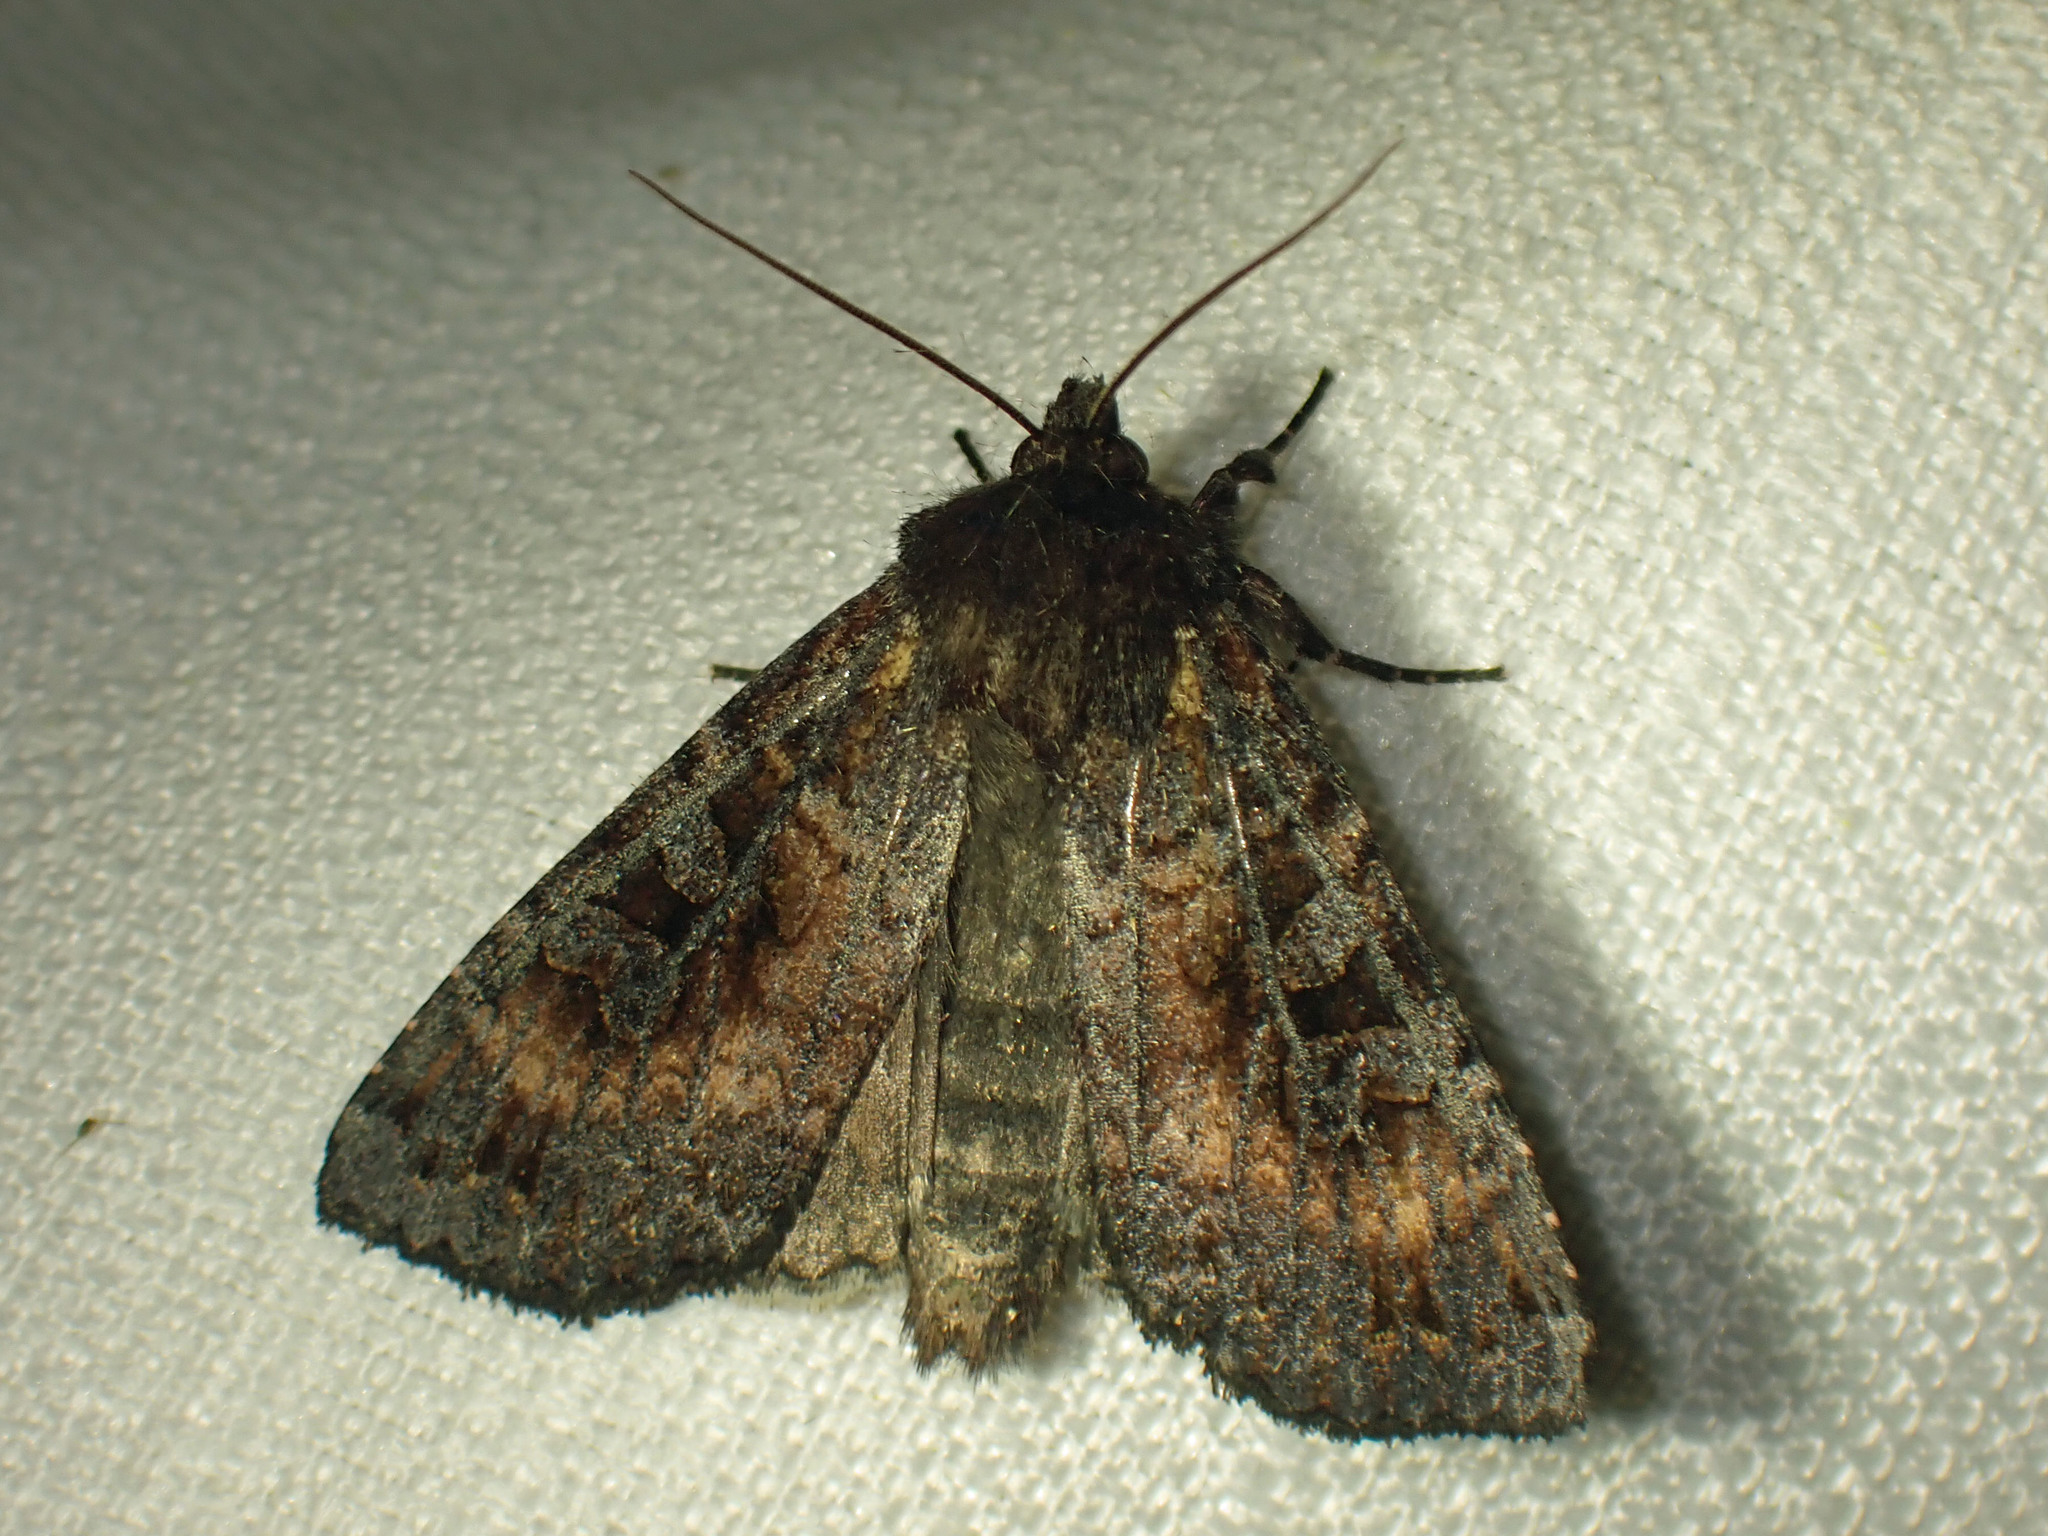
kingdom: Animalia
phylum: Arthropoda
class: Insecta
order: Lepidoptera
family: Noctuidae
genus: Eurois
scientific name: Eurois astricta
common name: Great brown dart
